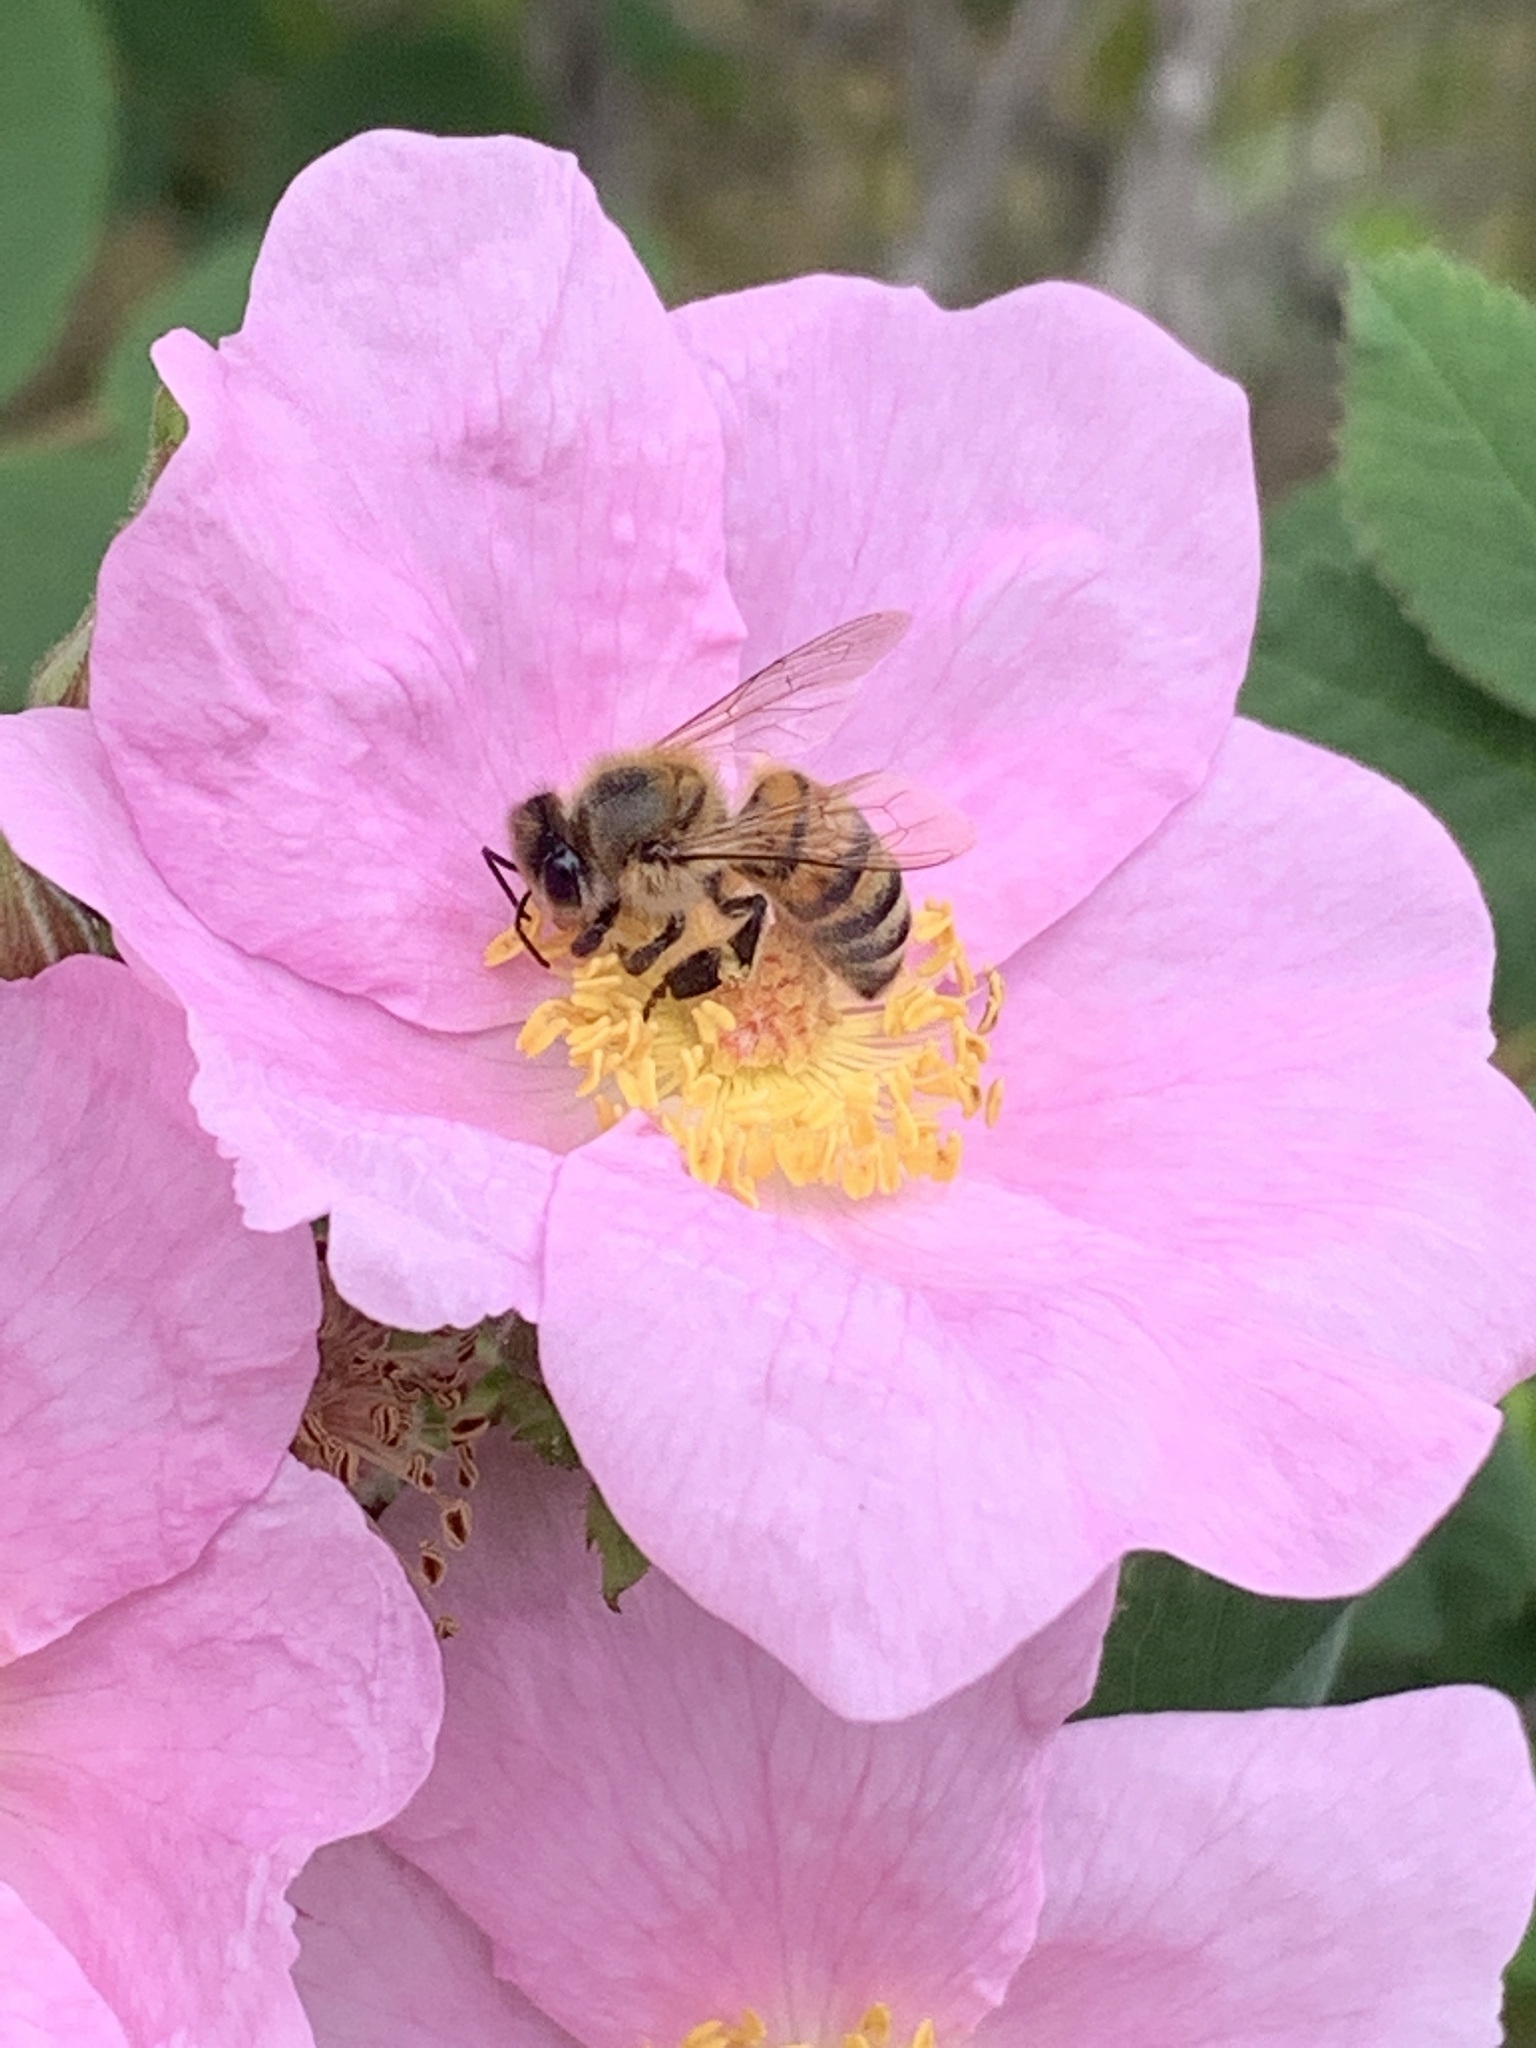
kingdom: Plantae
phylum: Tracheophyta
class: Magnoliopsida
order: Rosales
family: Rosaceae
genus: Rosa
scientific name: Rosa californica
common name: California rose
